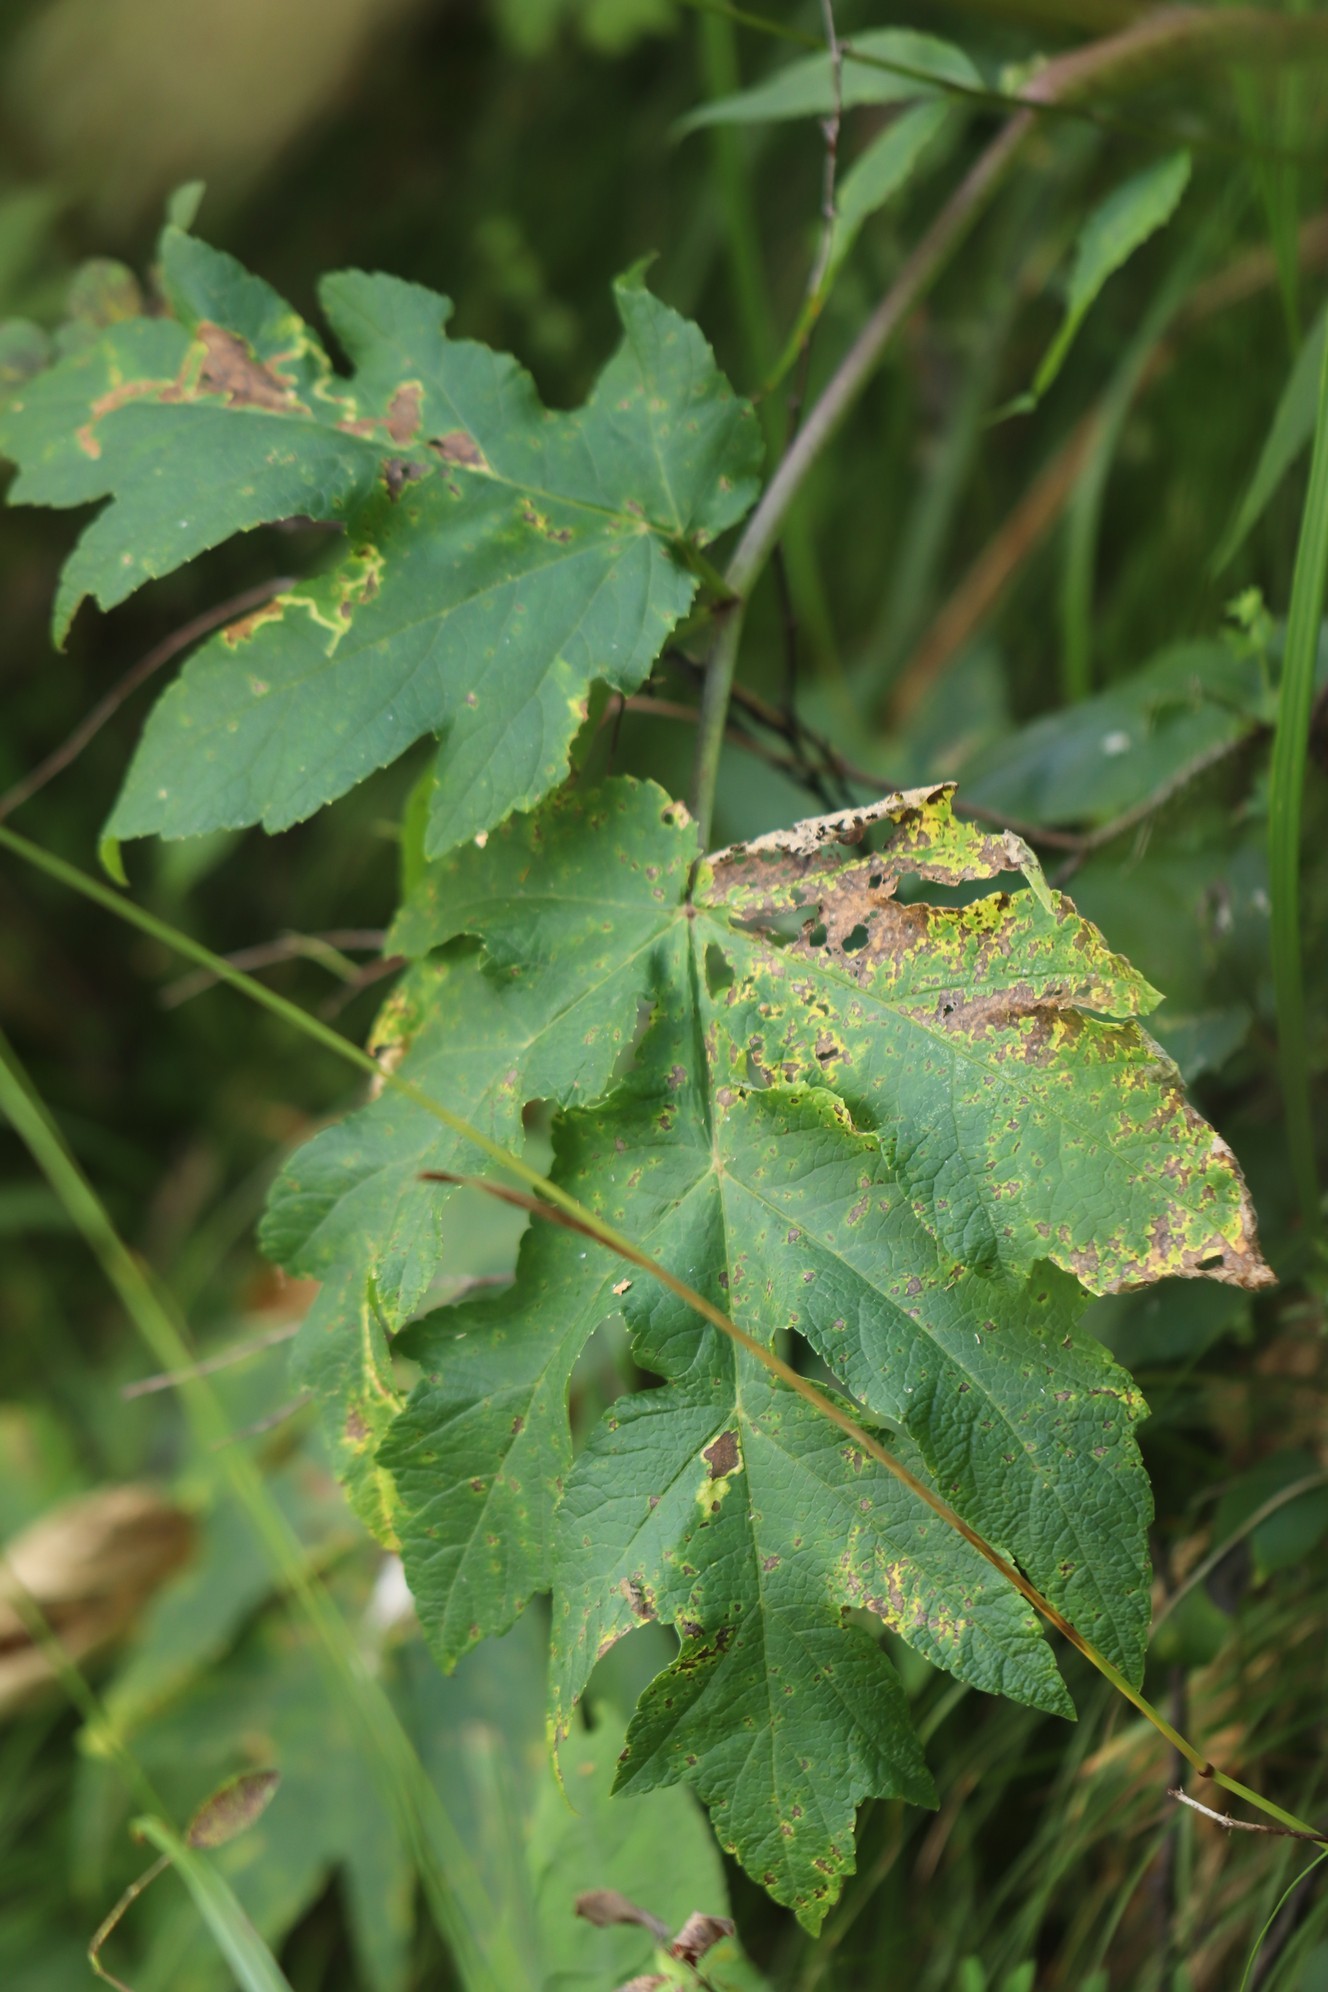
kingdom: Plantae
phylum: Tracheophyta
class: Magnoliopsida
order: Apiales
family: Apiaceae
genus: Heracleum
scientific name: Heracleum dissectum
